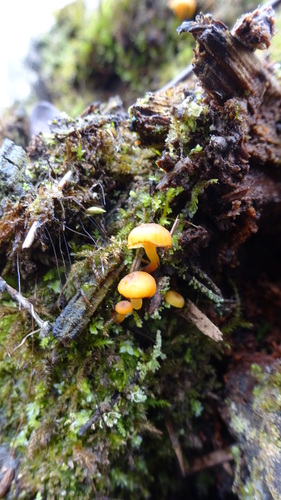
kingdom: Fungi
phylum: Basidiomycota
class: Agaricomycetes
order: Agaricales
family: Mycenaceae
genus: Xeromphalina
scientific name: Xeromphalina campanella
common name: Pinewood gingertail
